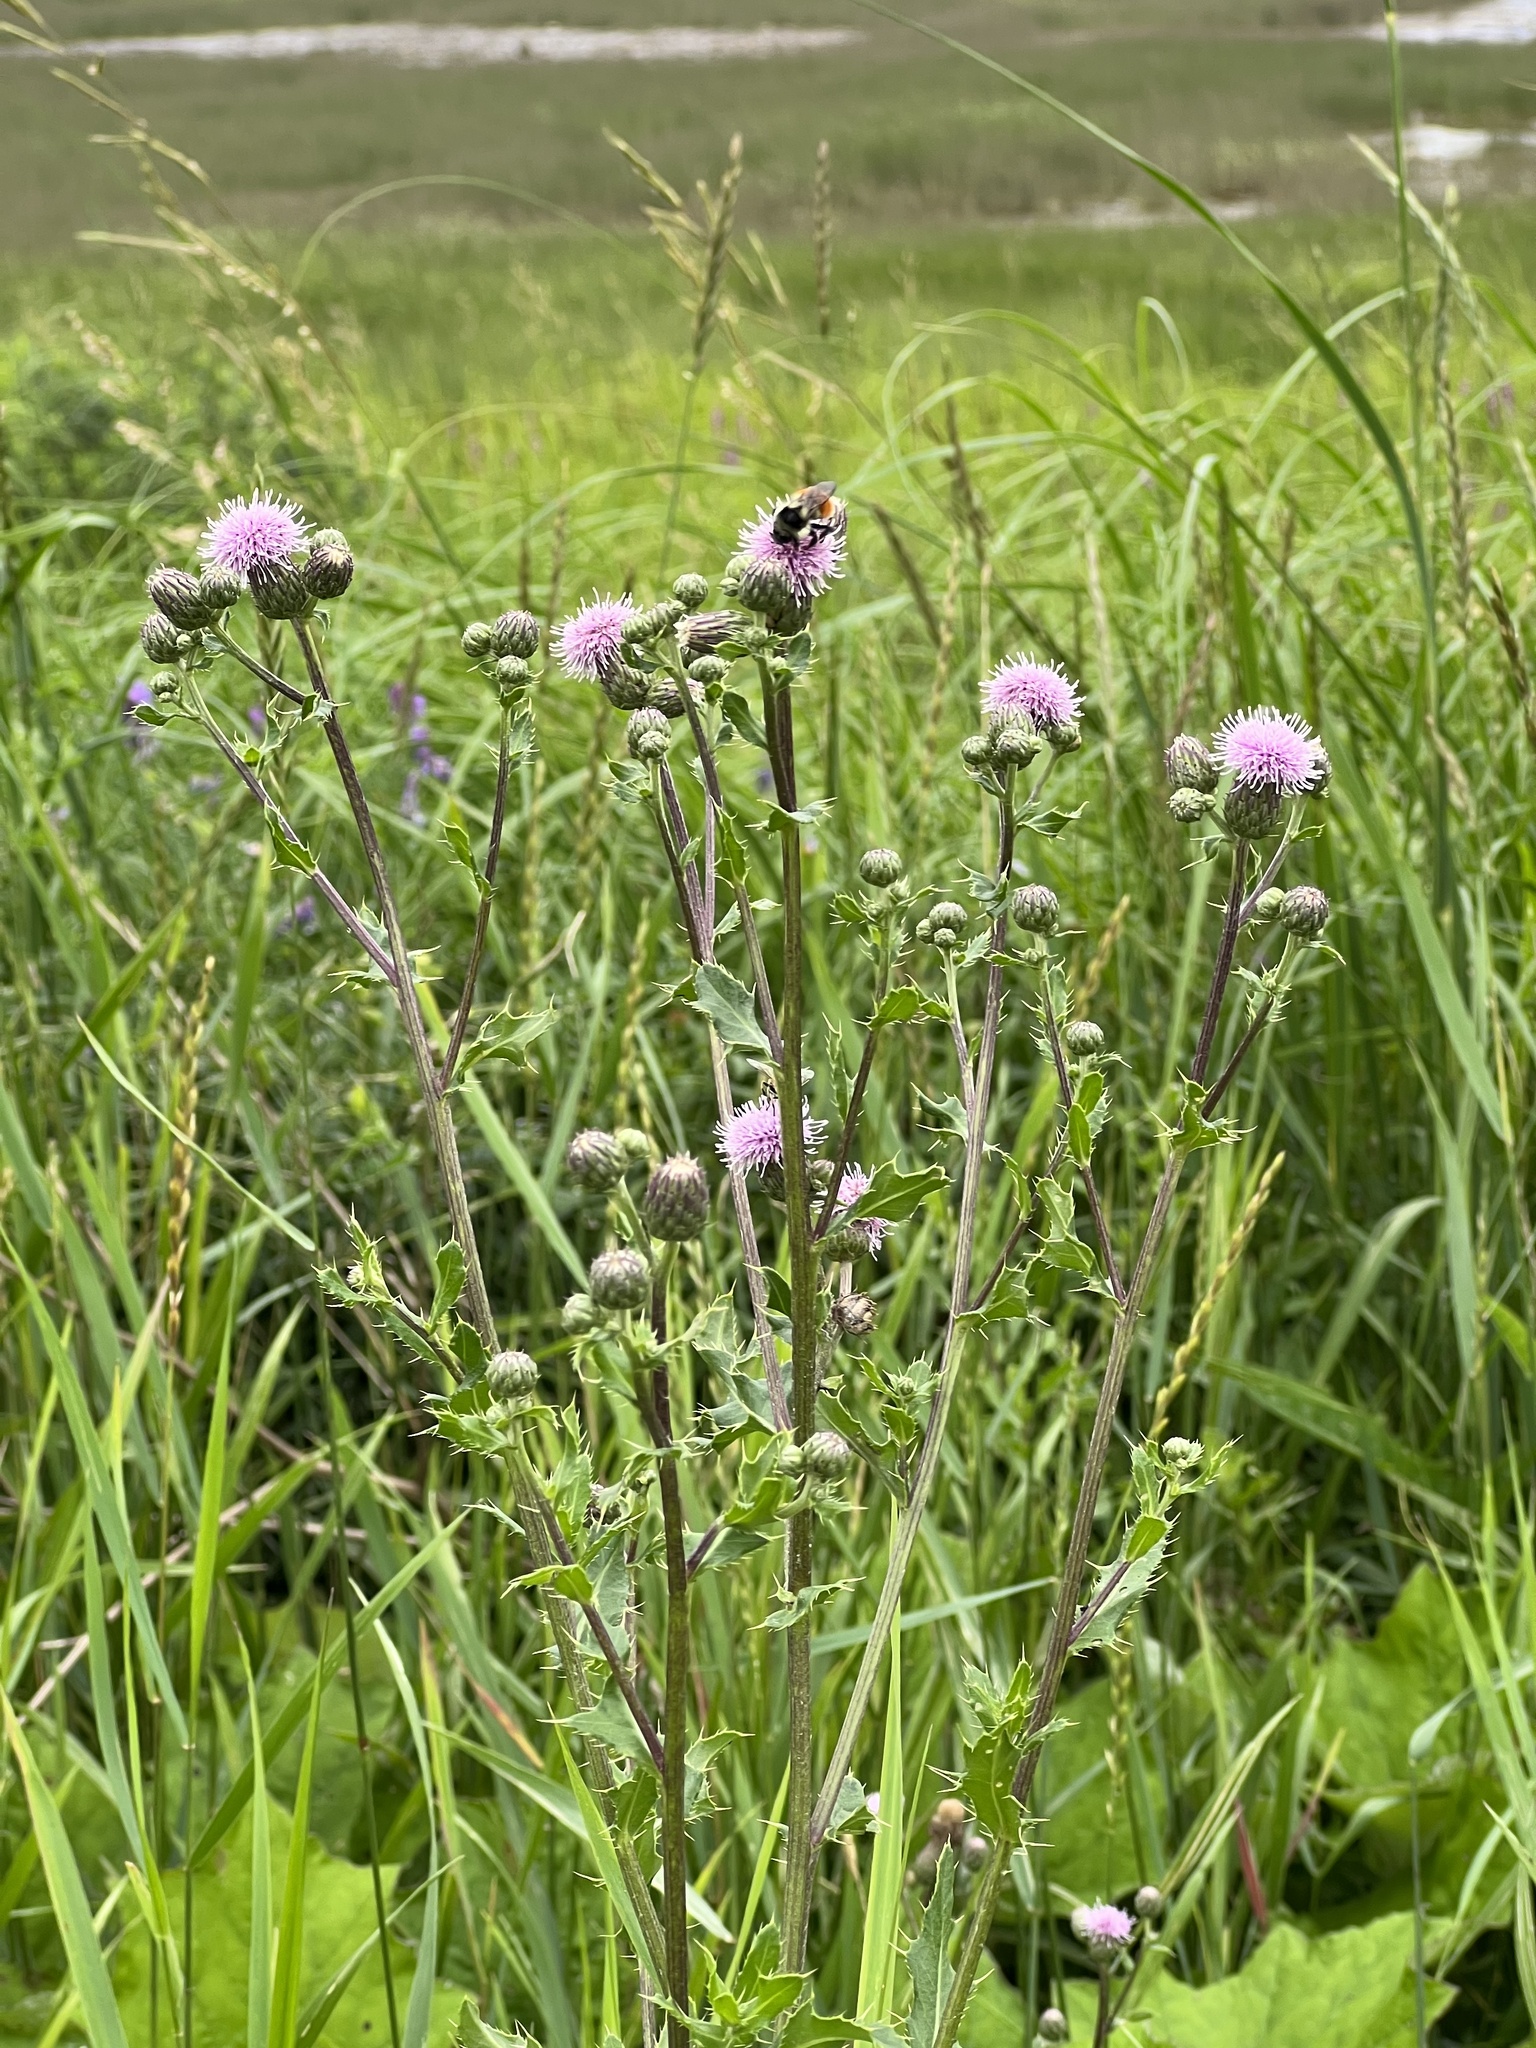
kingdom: Plantae
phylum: Tracheophyta
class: Magnoliopsida
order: Asterales
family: Asteraceae
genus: Cirsium
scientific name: Cirsium arvense
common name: Creeping thistle
